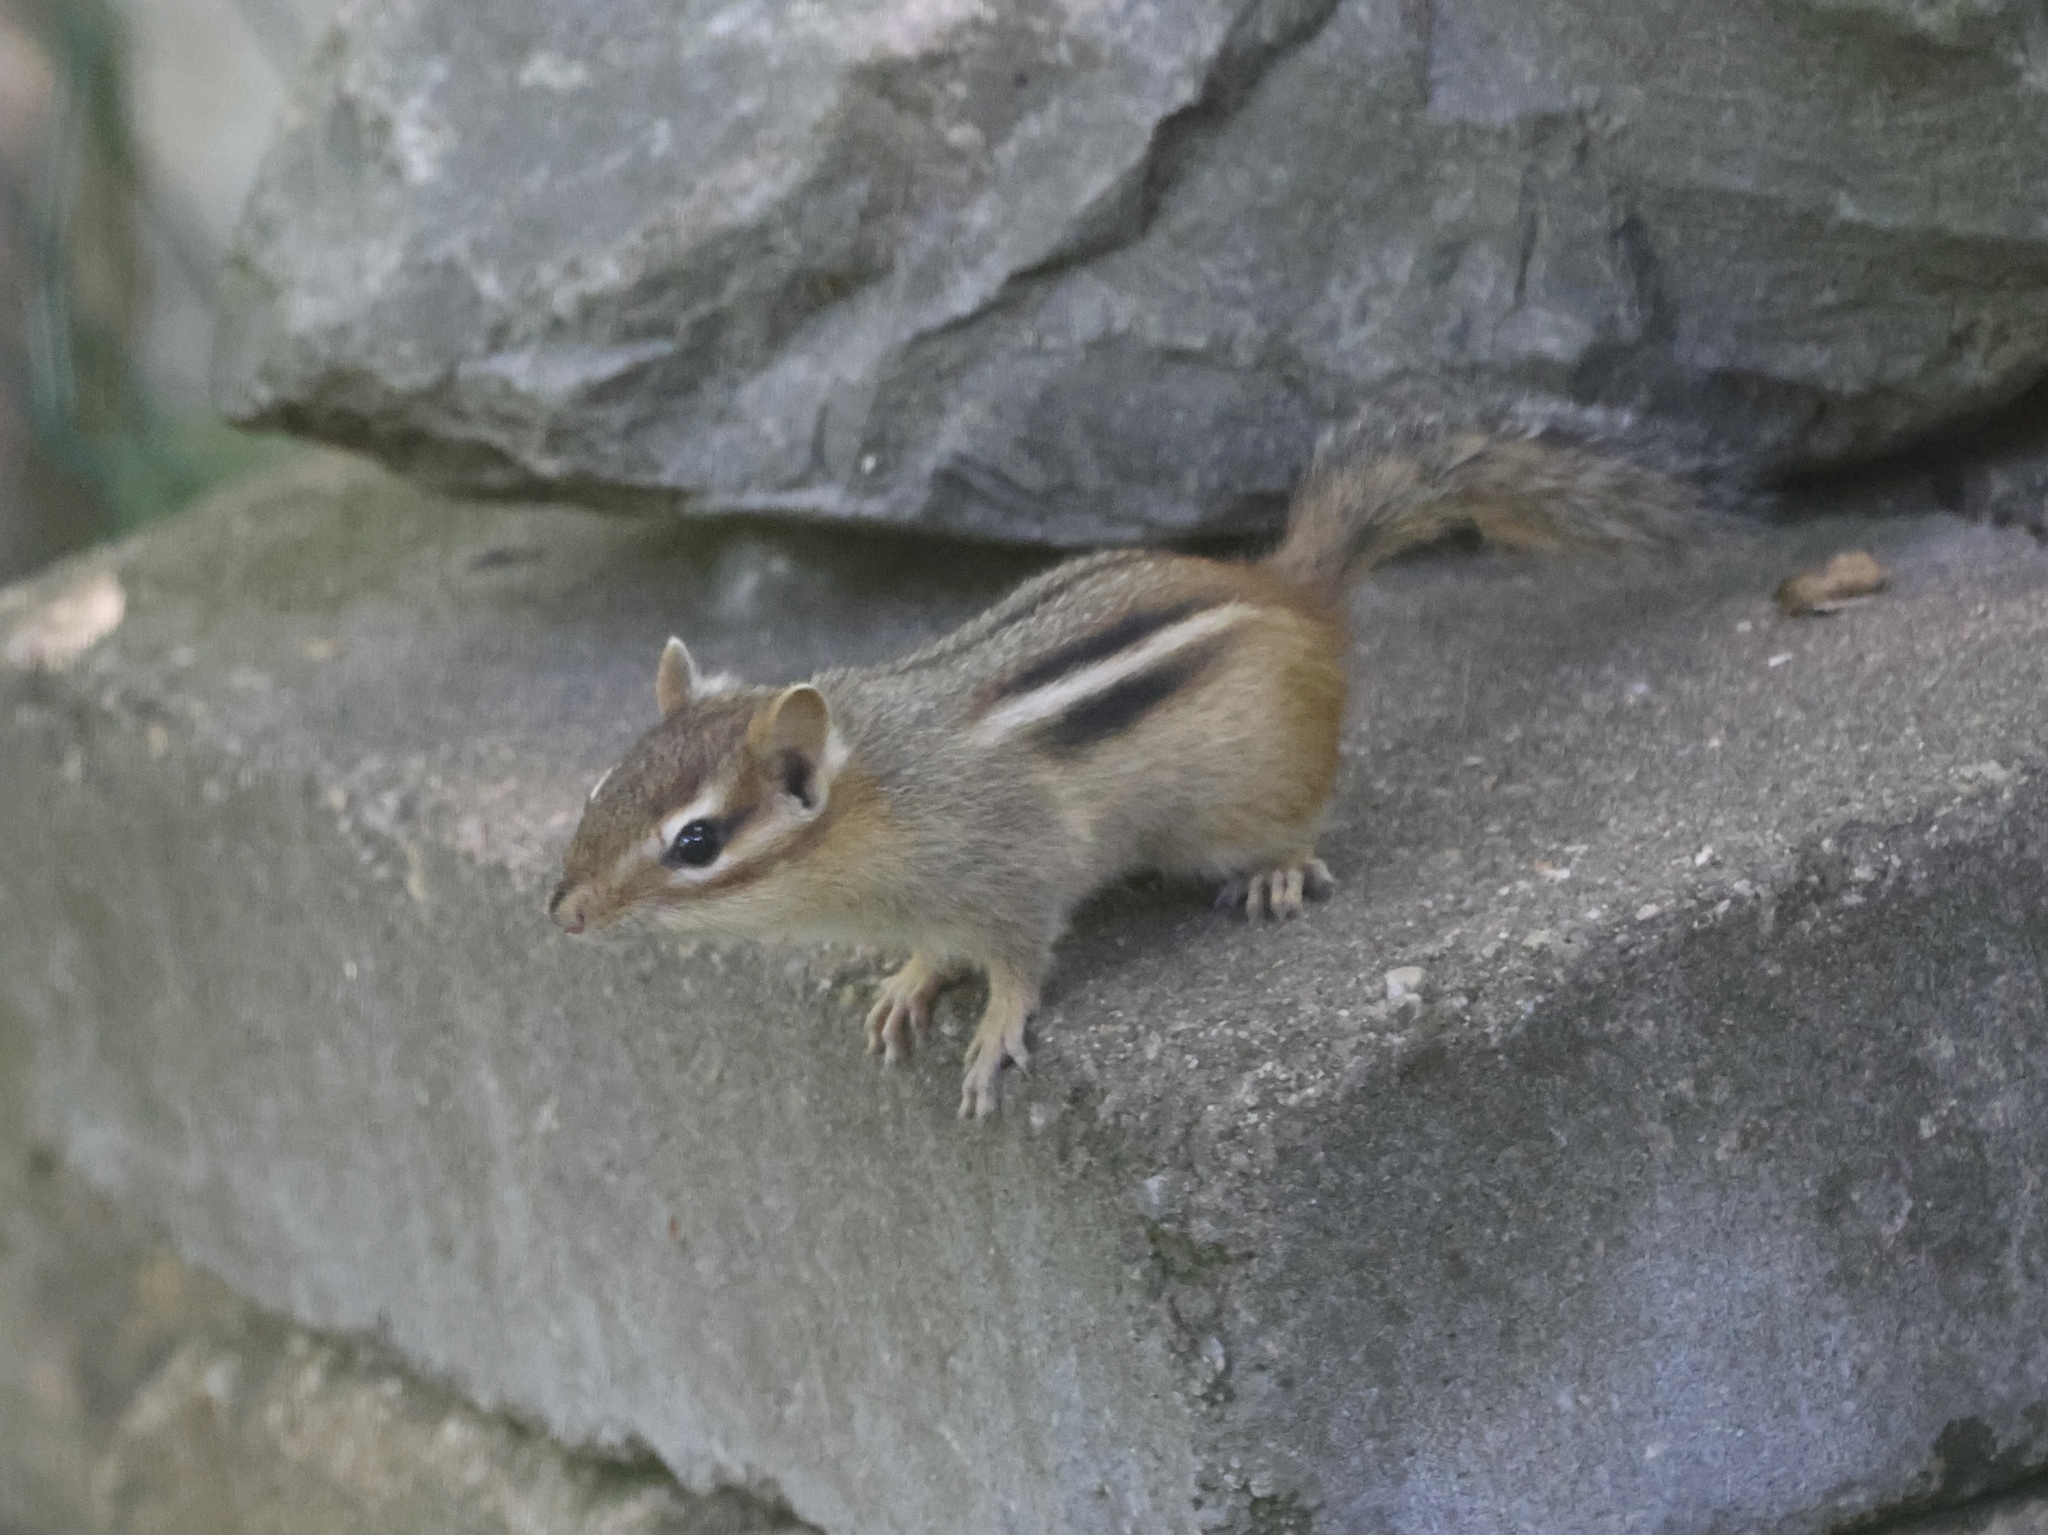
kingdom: Animalia
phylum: Chordata
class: Mammalia
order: Rodentia
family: Sciuridae
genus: Tamias
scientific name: Tamias striatus
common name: Eastern chipmunk
